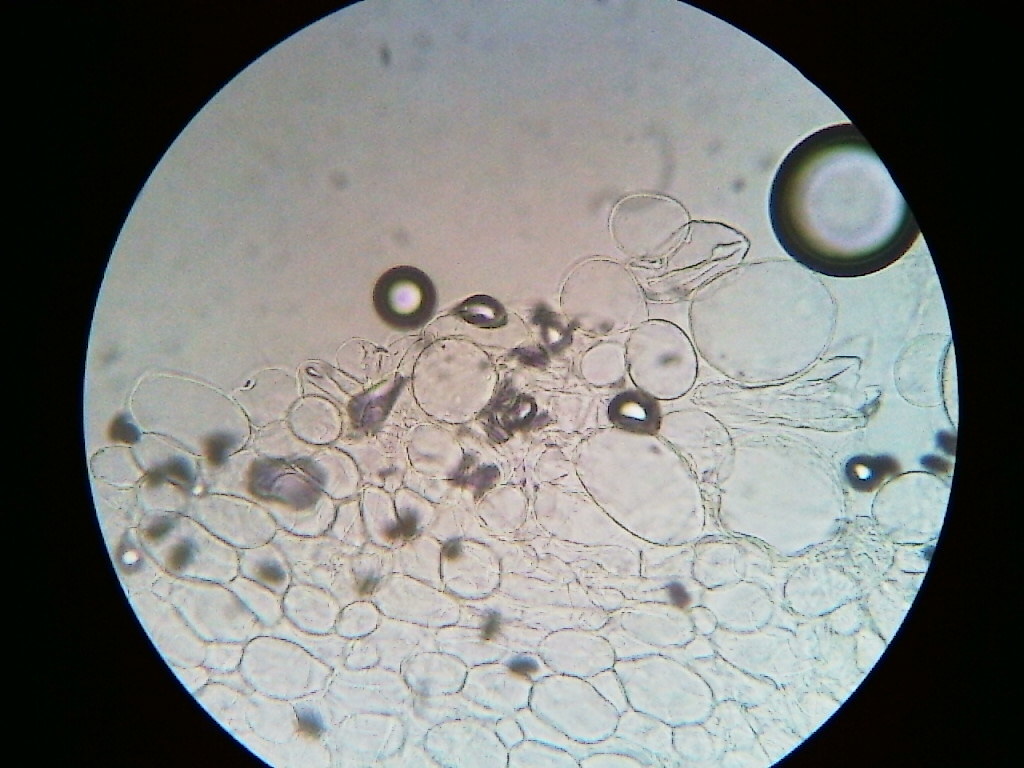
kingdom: Fungi
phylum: Basidiomycota
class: Agaricomycetes
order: Agaricales
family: Psathyrellaceae
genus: Coprinopsis
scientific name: Coprinopsis lagopus
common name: Hare'sfoot inkcap
